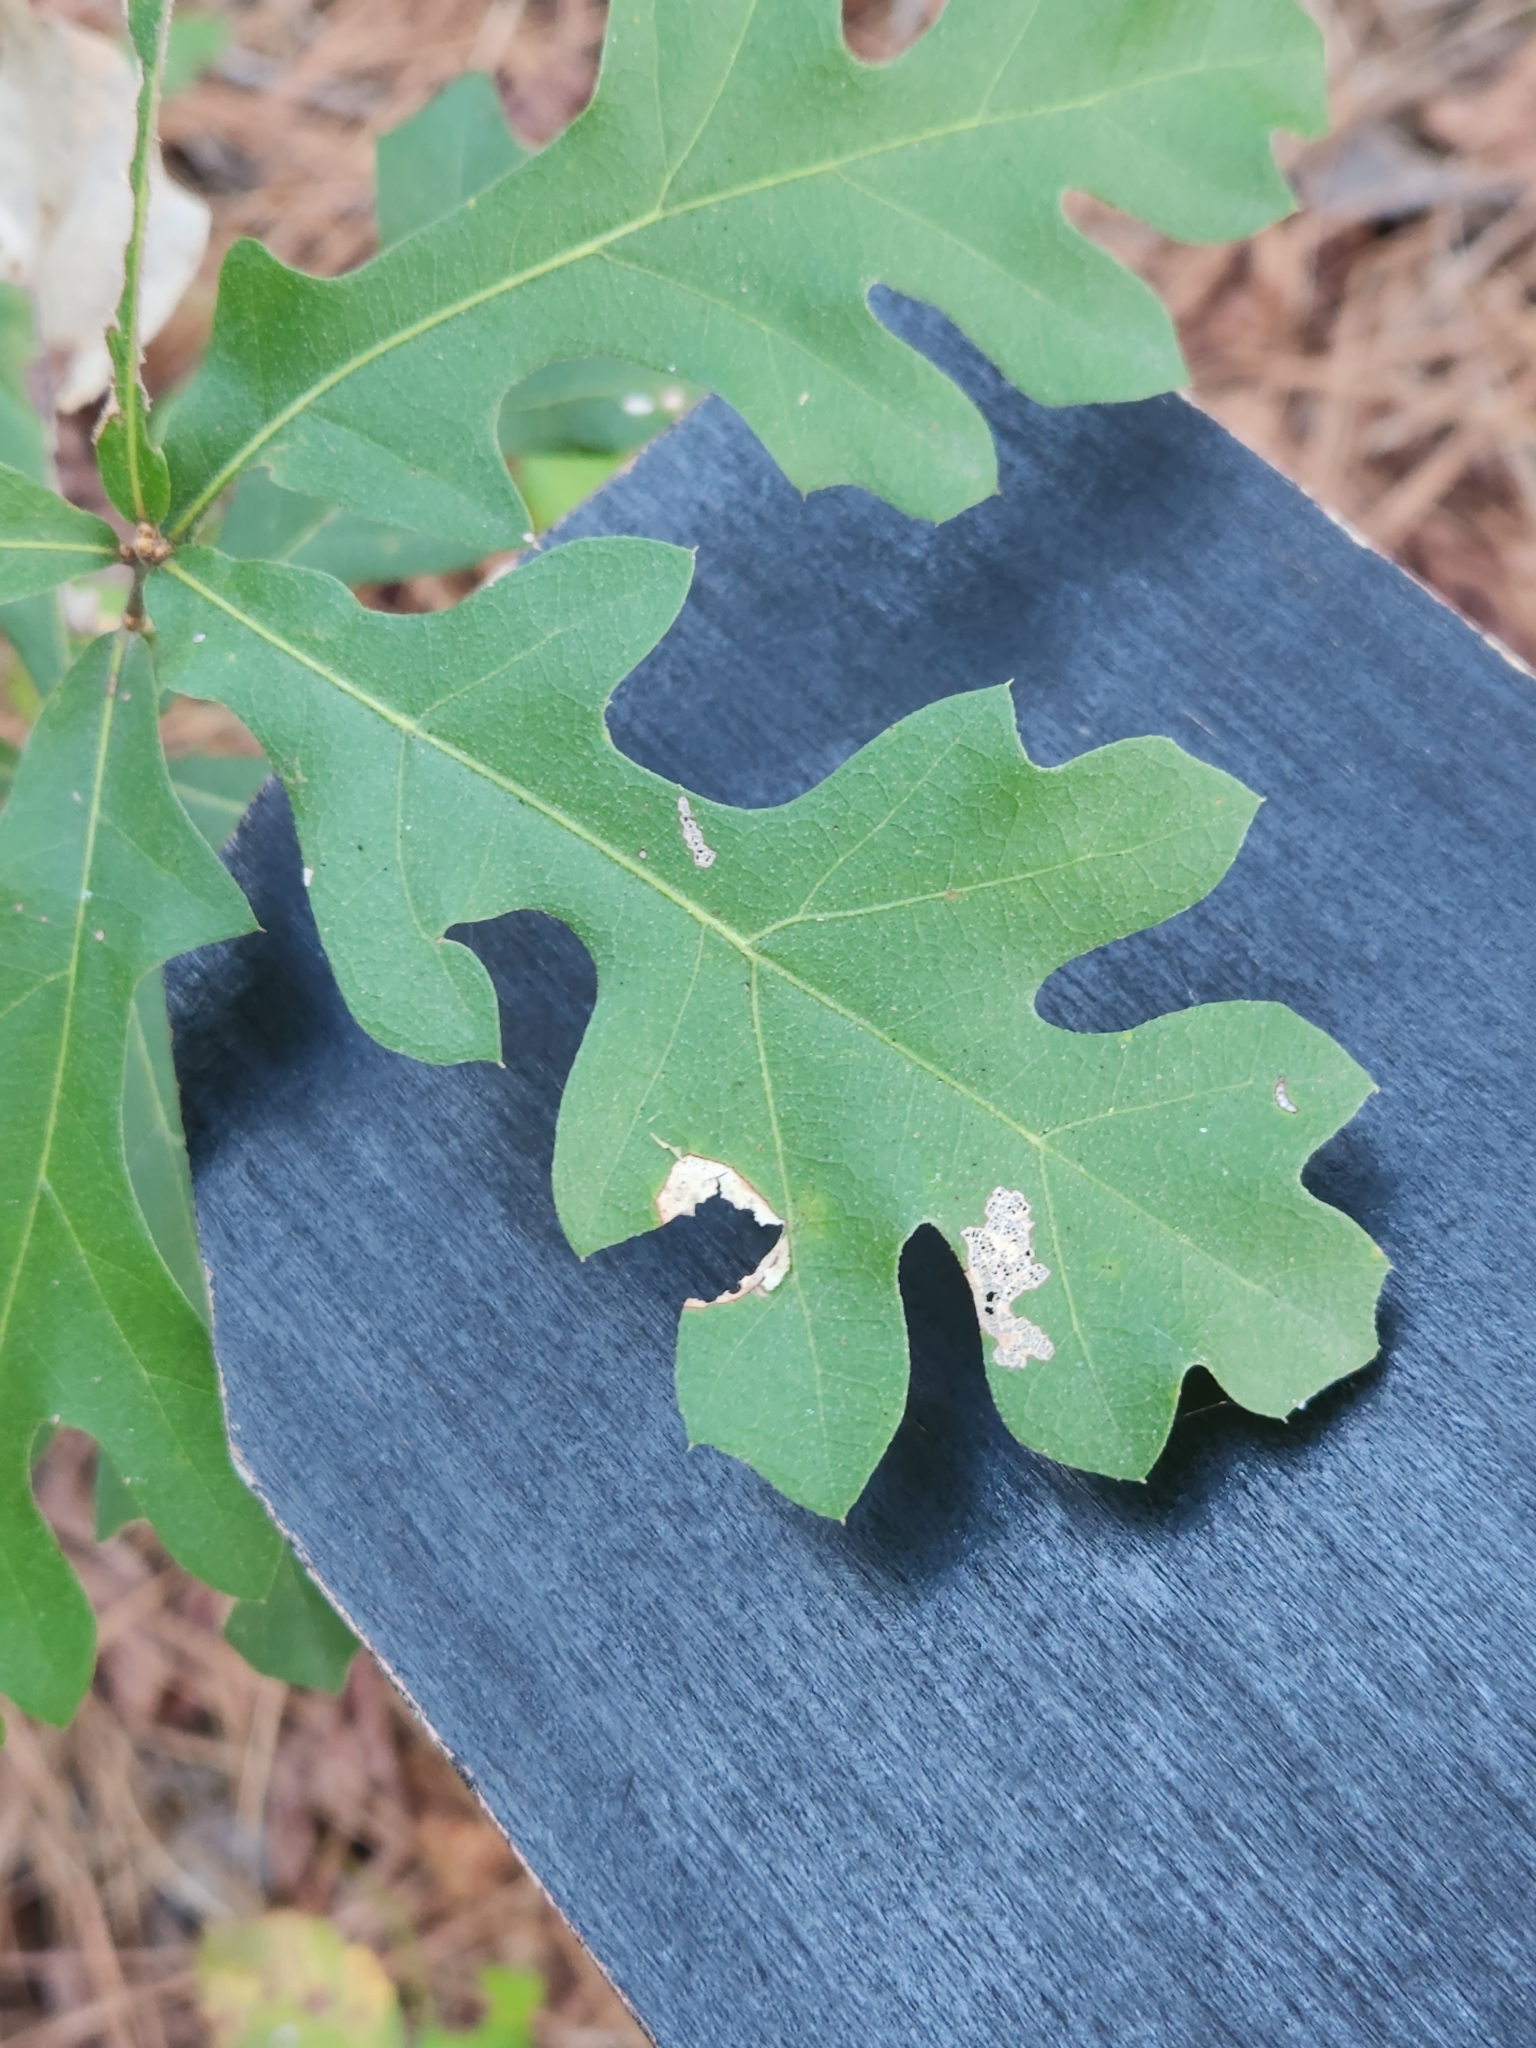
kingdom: Plantae
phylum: Tracheophyta
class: Magnoliopsida
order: Fagales
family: Fagaceae
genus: Quercus
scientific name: Quercus nigra
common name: Water oak
